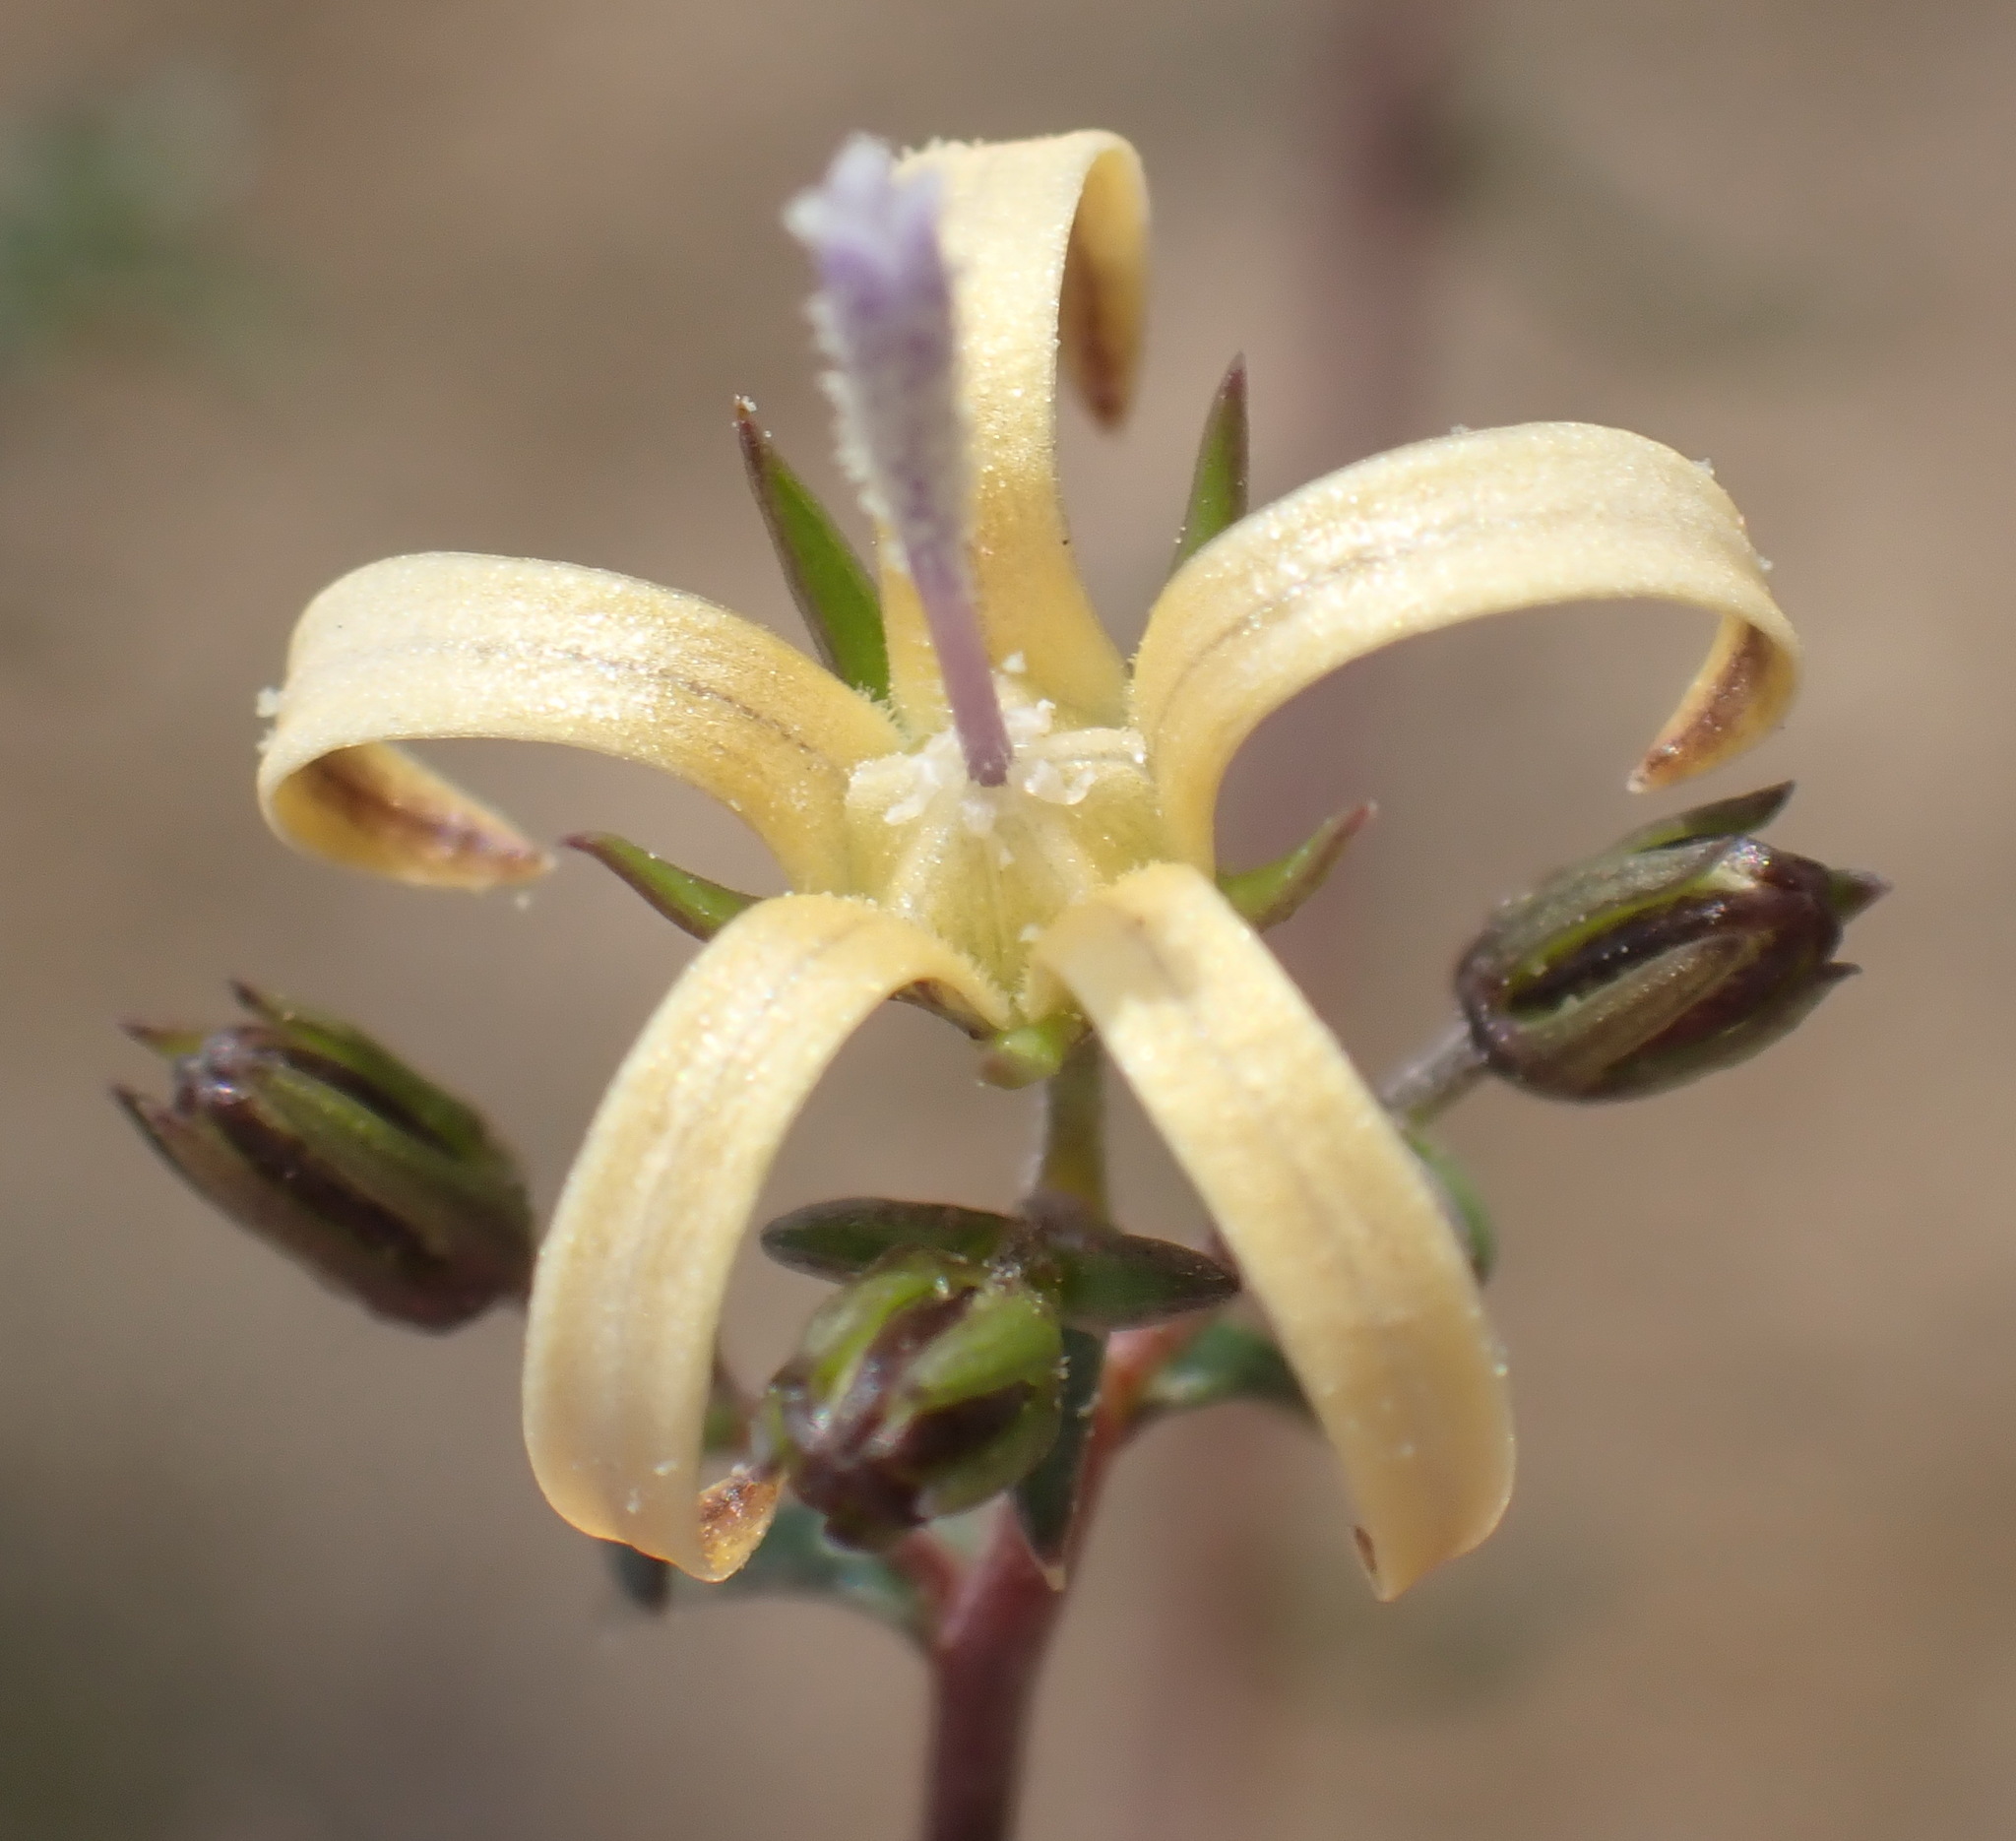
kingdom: Plantae
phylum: Tracheophyta
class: Magnoliopsida
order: Asterales
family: Campanulaceae
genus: Wahlenbergia
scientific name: Wahlenbergia nodosa
